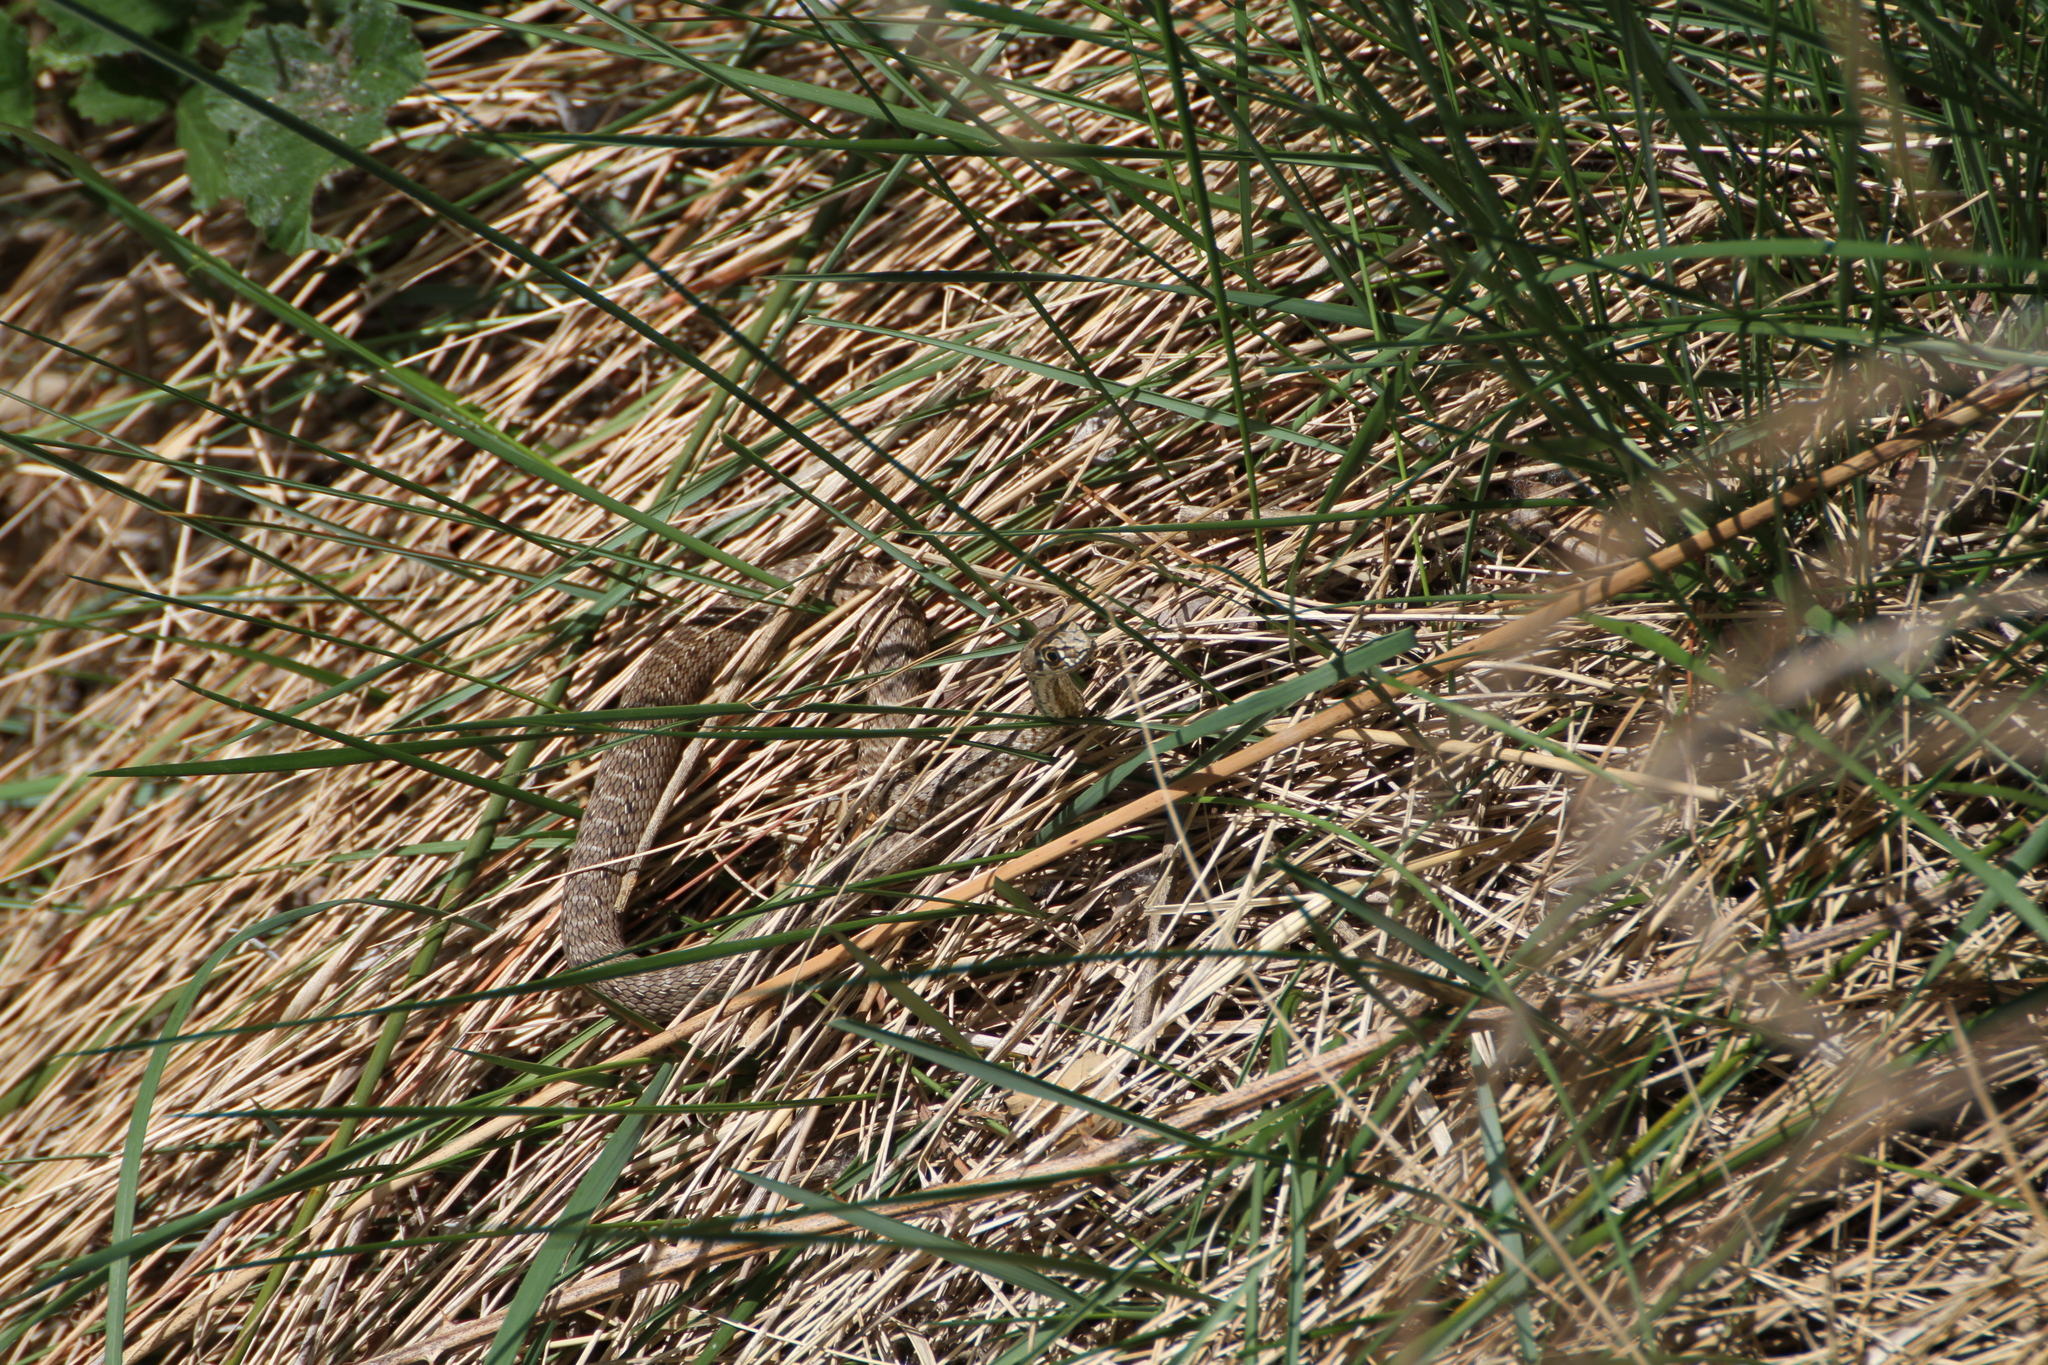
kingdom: Animalia
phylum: Chordata
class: Squamata
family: Psammophiidae
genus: Malpolon
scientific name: Malpolon monspessulanus
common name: Montpellier snake
